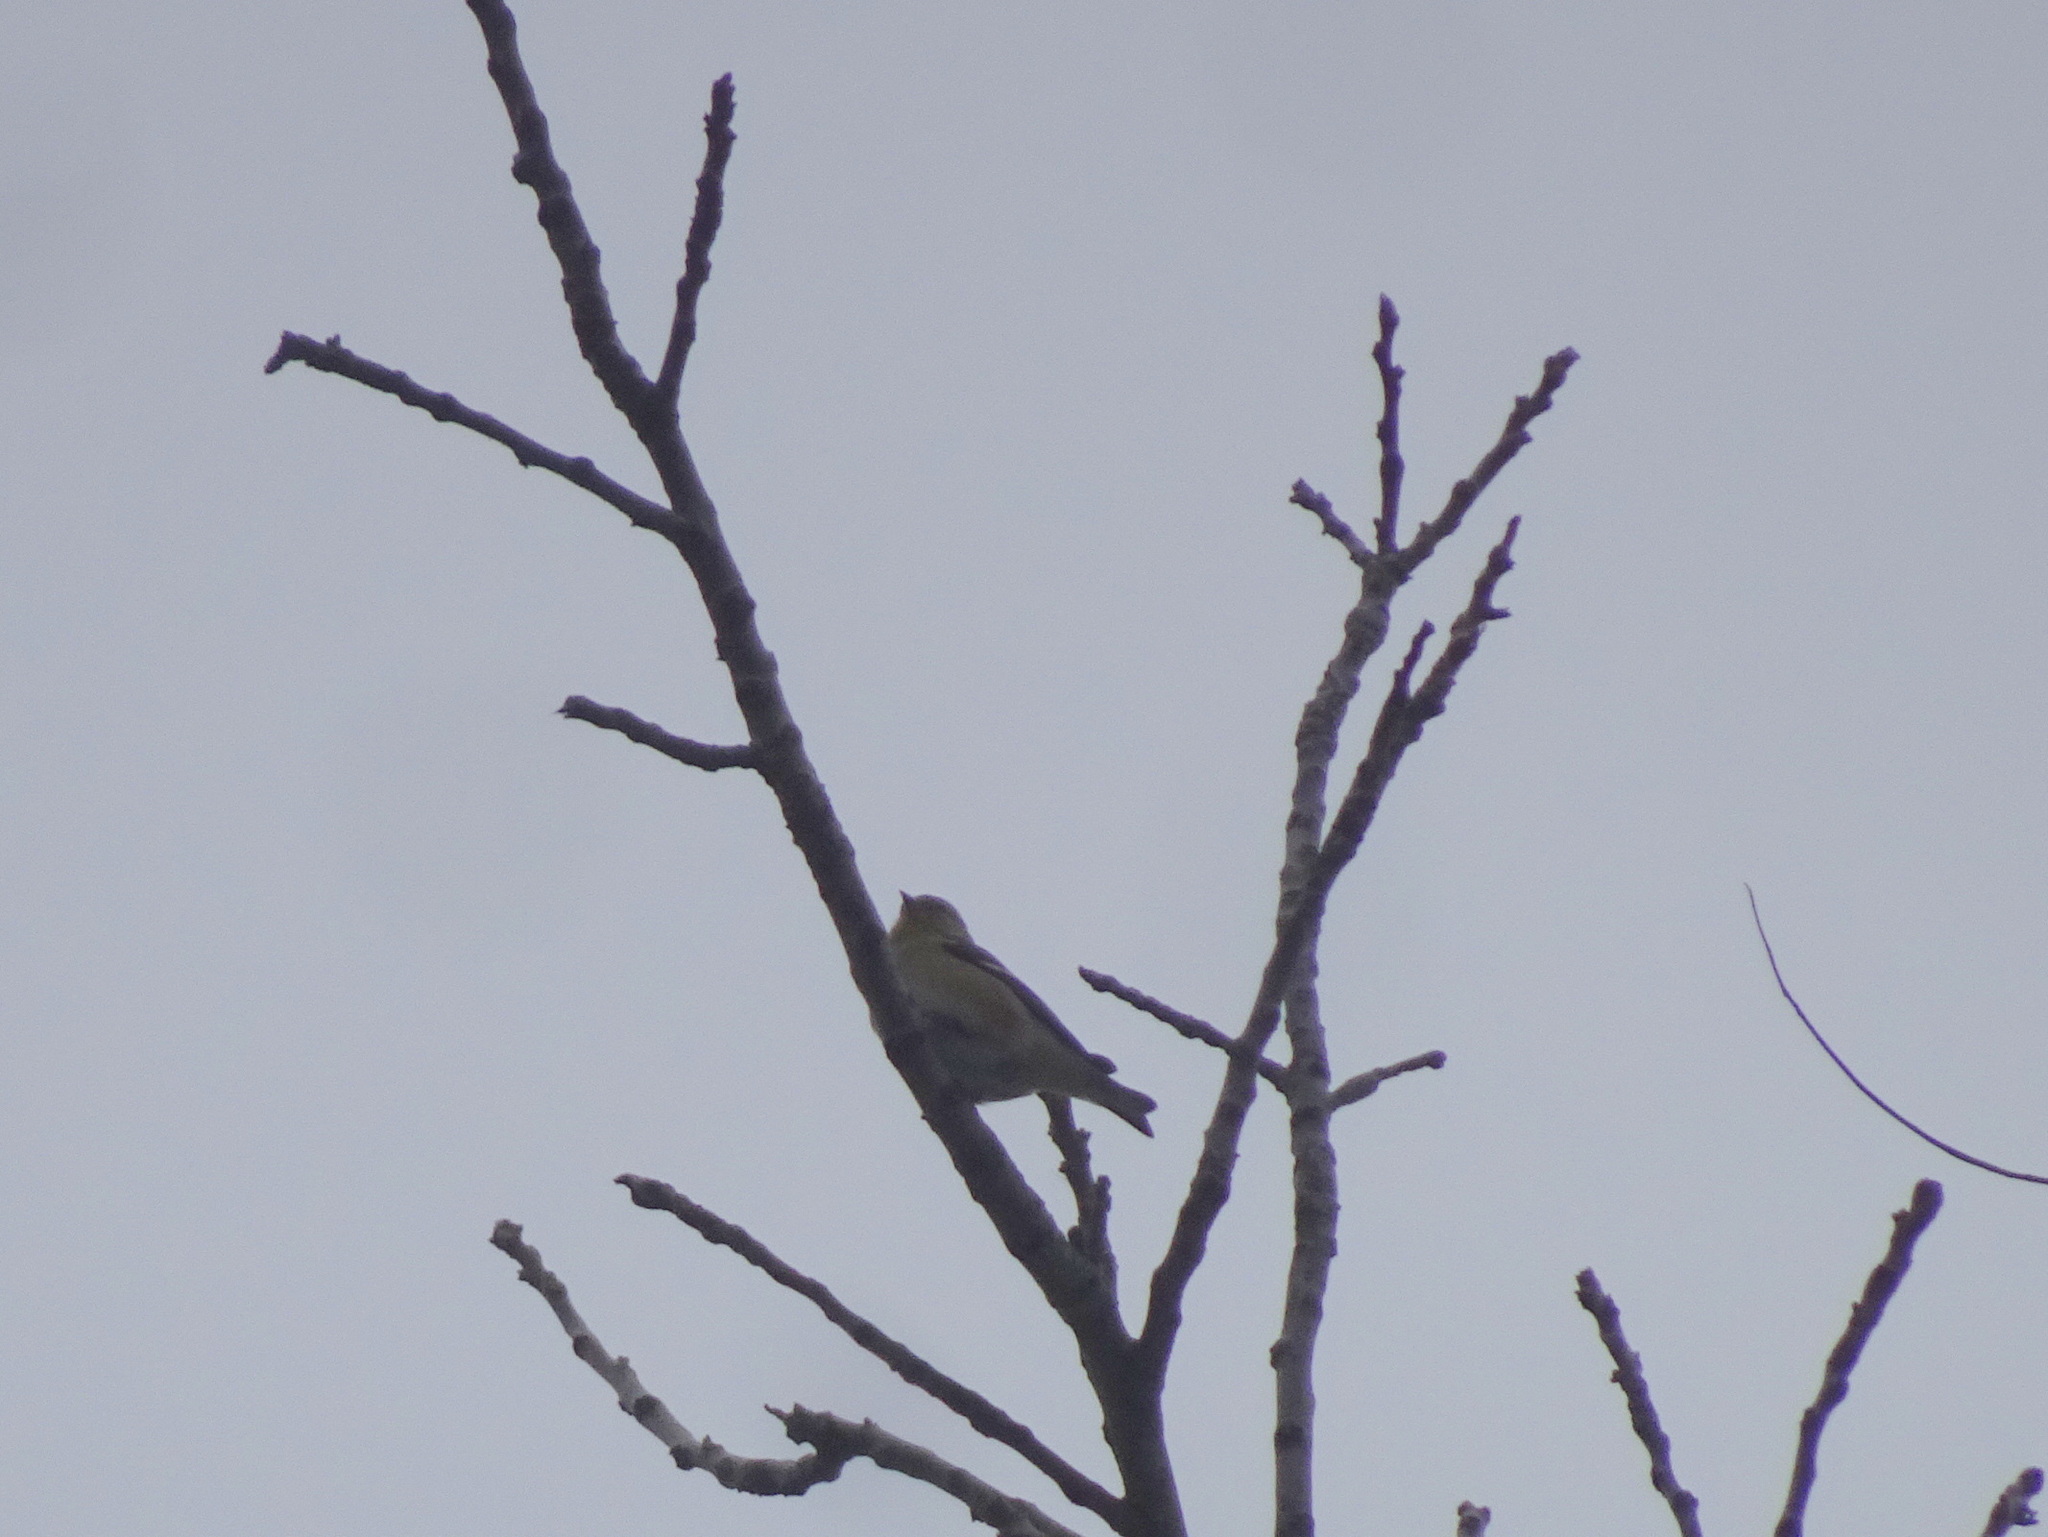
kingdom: Animalia
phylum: Chordata
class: Aves
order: Passeriformes
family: Fringillidae
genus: Spinus
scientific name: Spinus tristis
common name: American goldfinch
